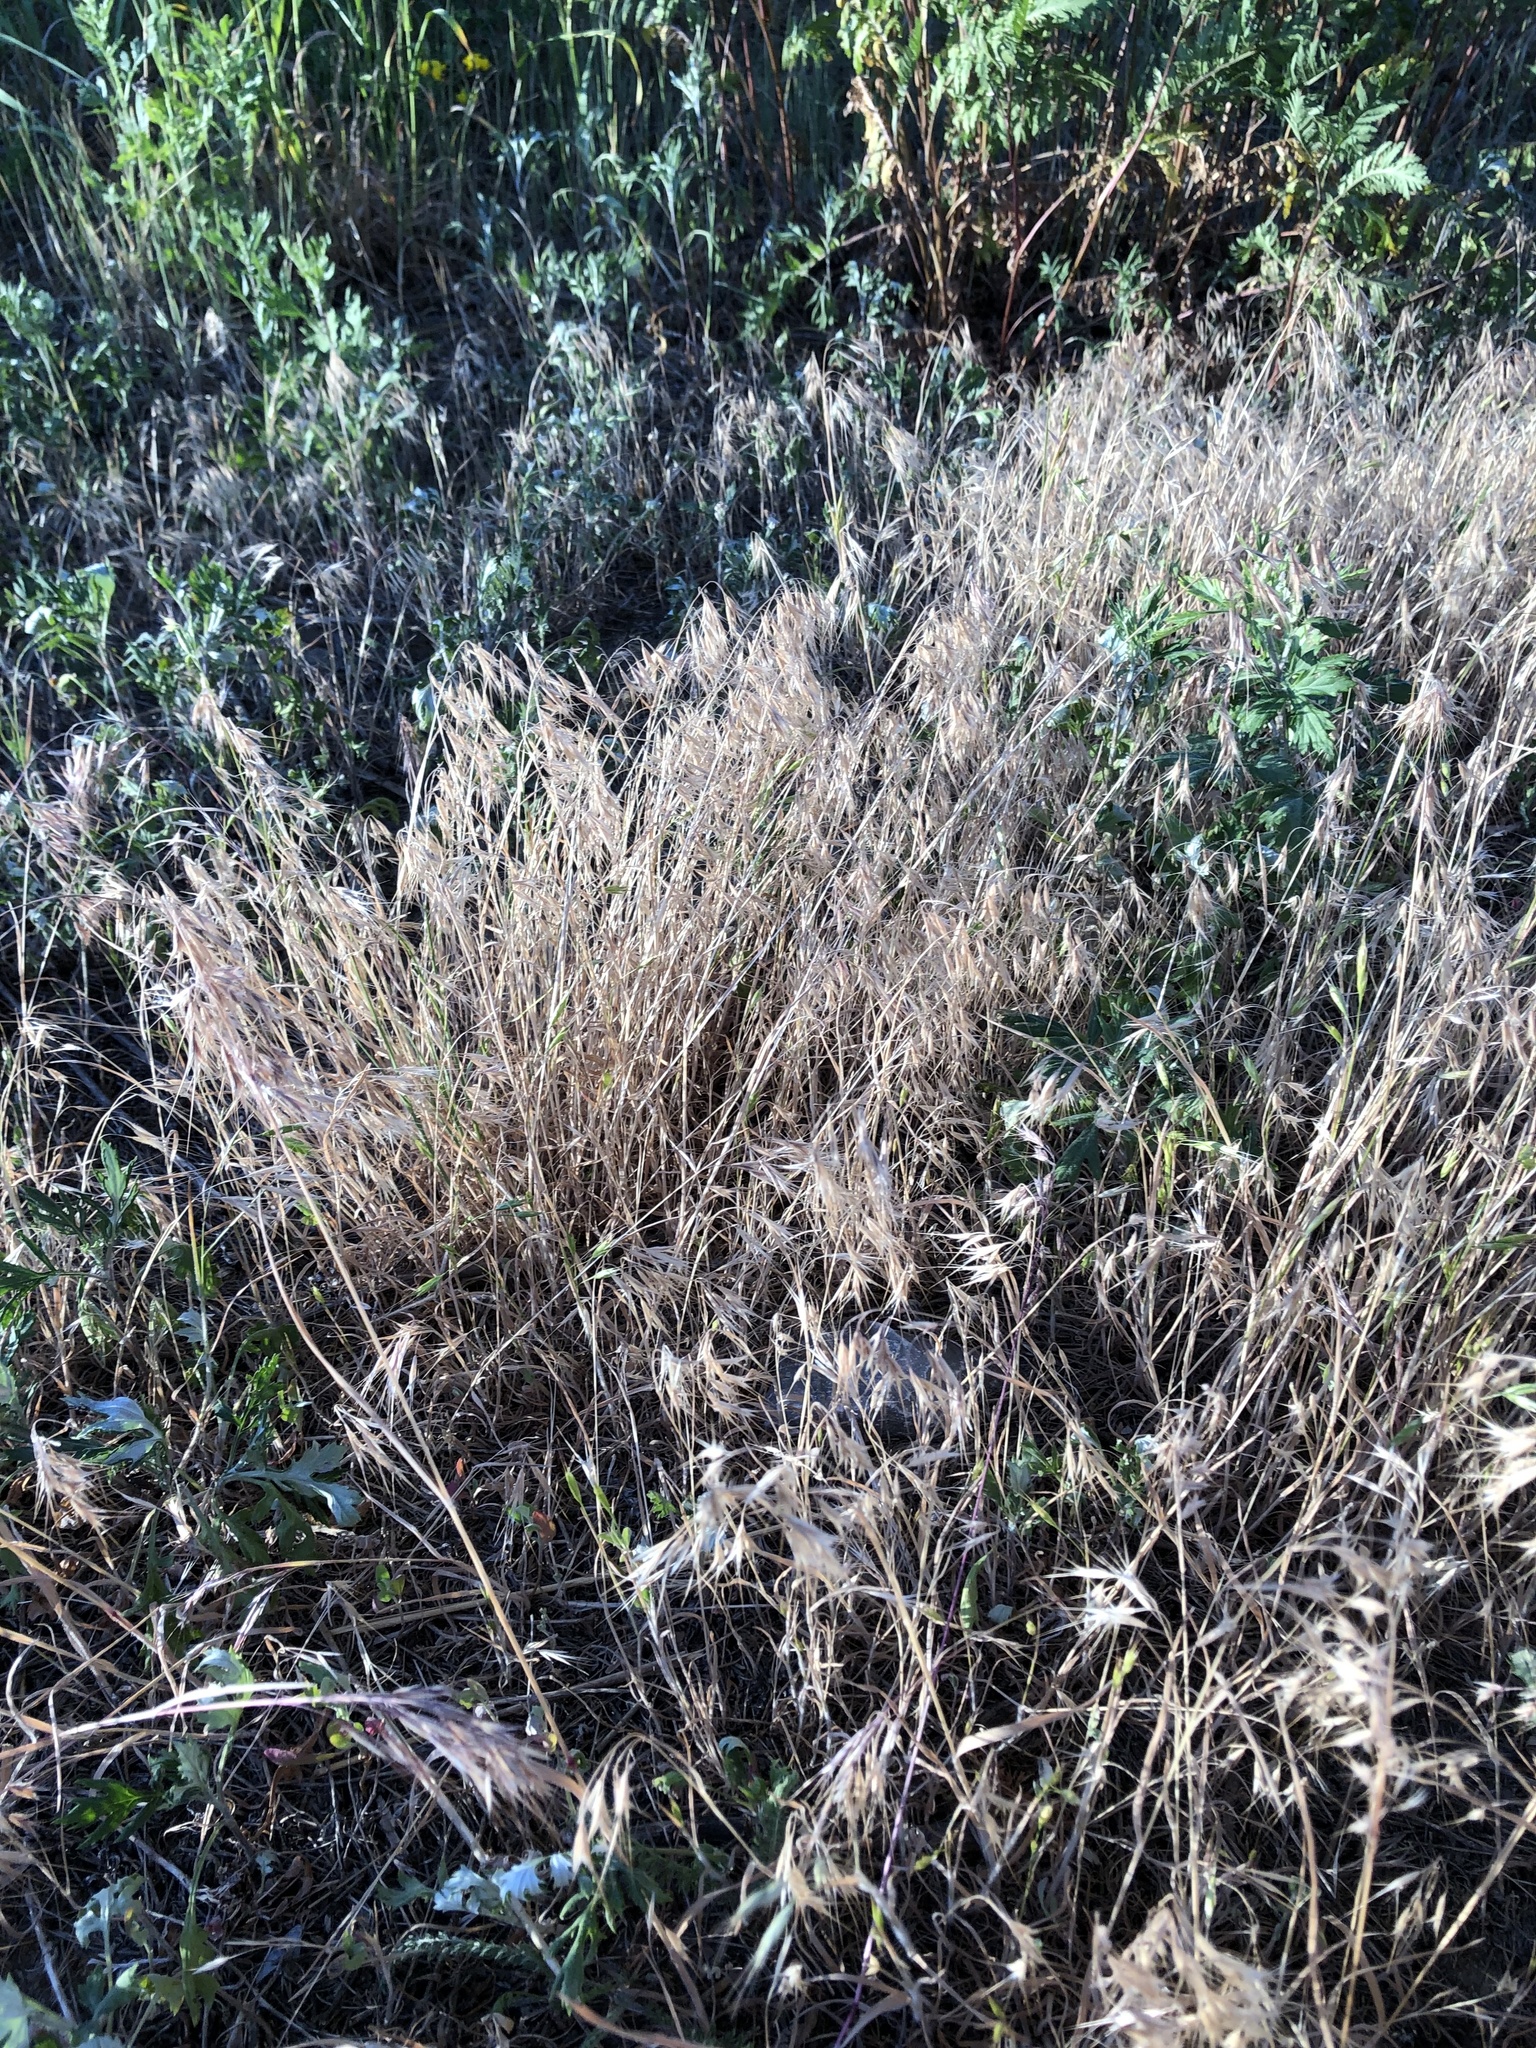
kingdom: Plantae
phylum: Tracheophyta
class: Liliopsida
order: Poales
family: Poaceae
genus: Bromus
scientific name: Bromus tectorum
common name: Cheatgrass
